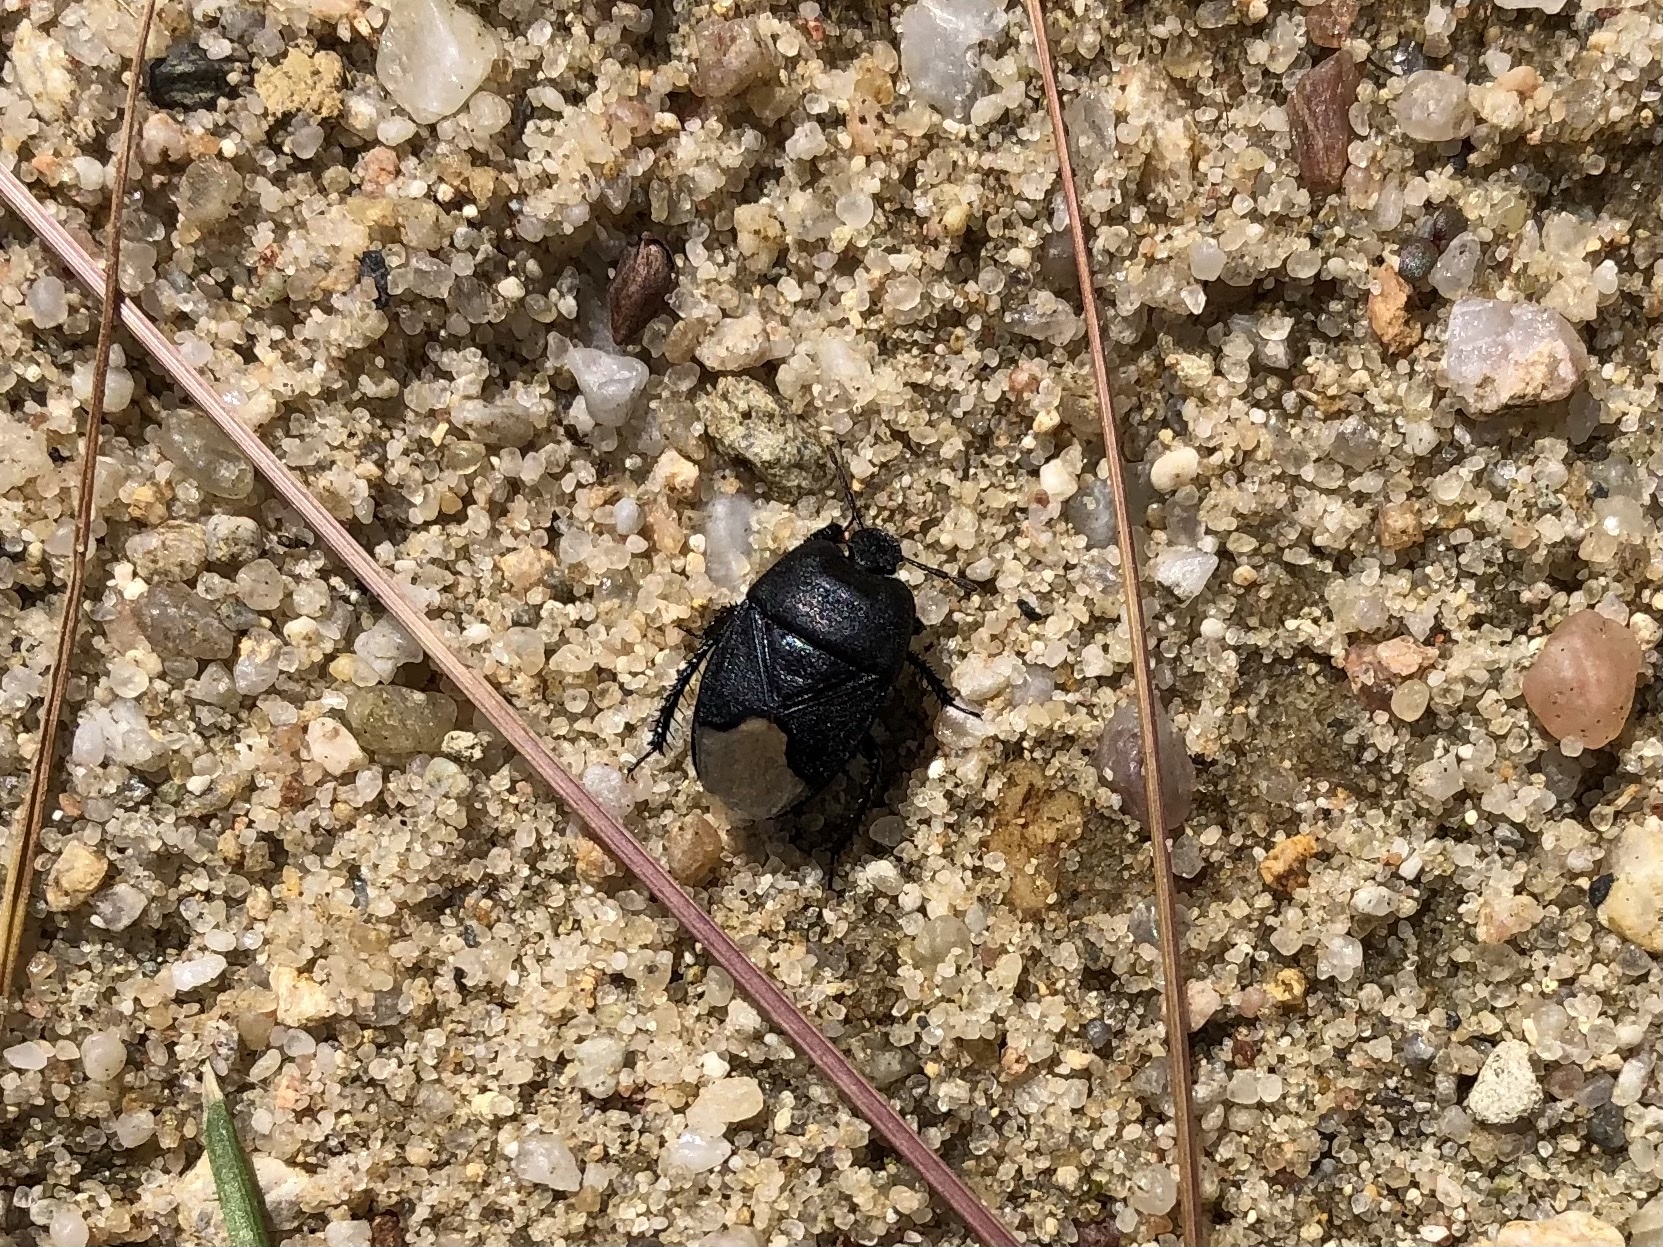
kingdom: Animalia
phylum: Arthropoda
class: Insecta
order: Hemiptera
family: Cydnidae
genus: Cydnus
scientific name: Cydnus aterrimus
